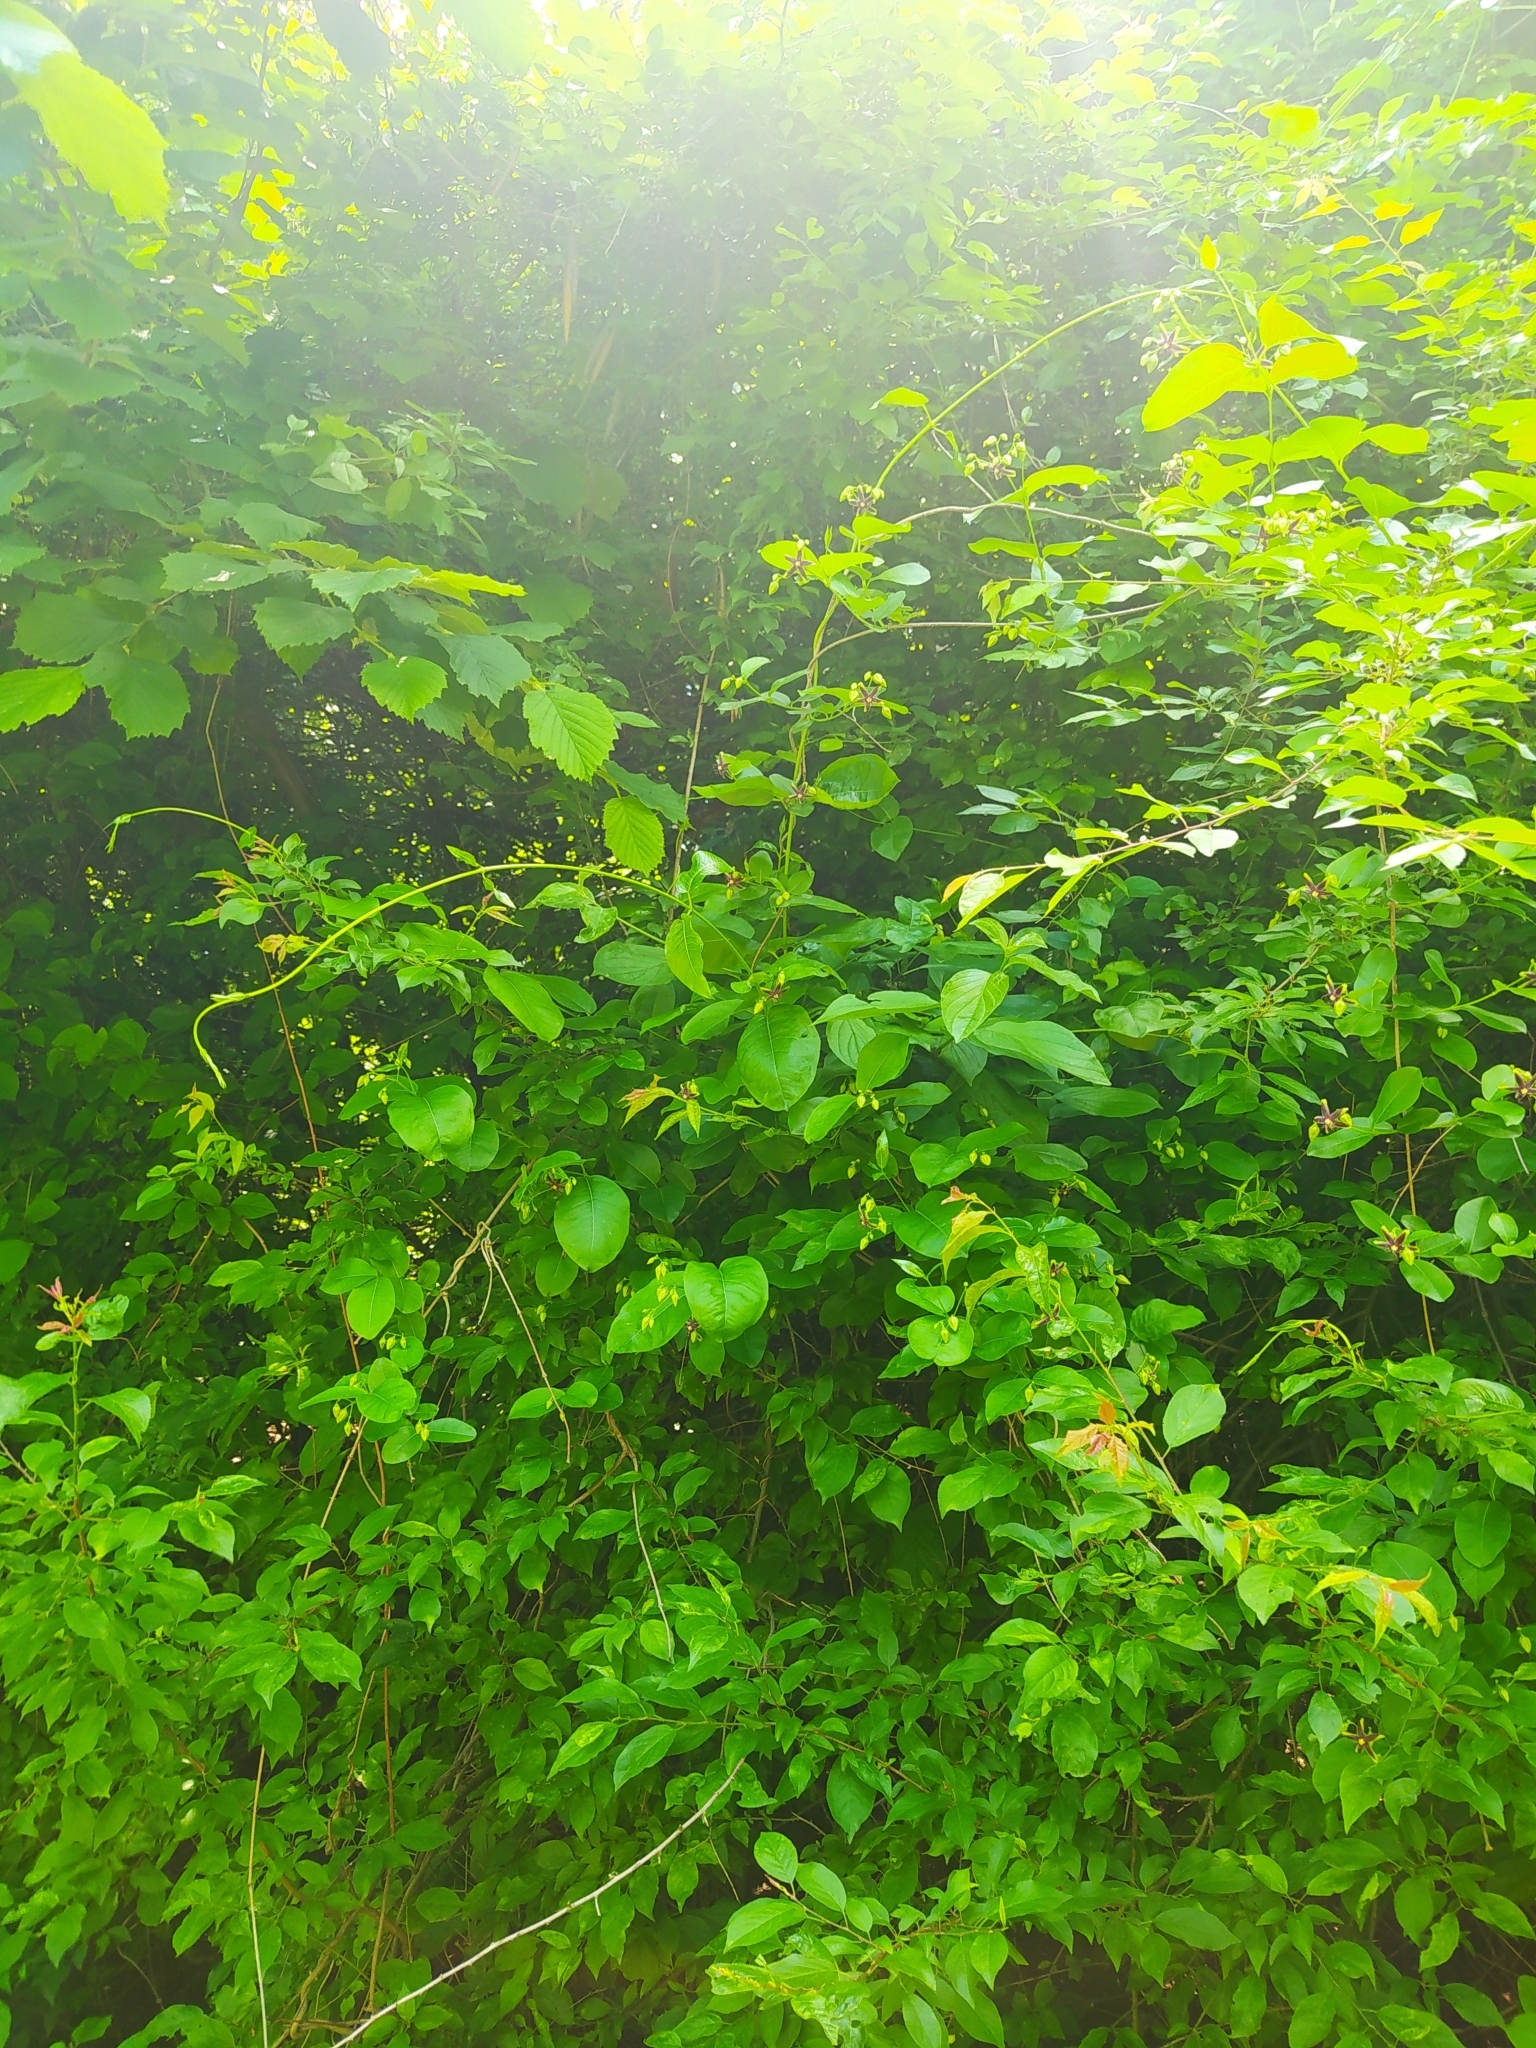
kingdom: Plantae
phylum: Tracheophyta
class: Magnoliopsida
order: Gentianales
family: Apocynaceae
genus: Periploca
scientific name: Periploca graeca
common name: Silkvine
